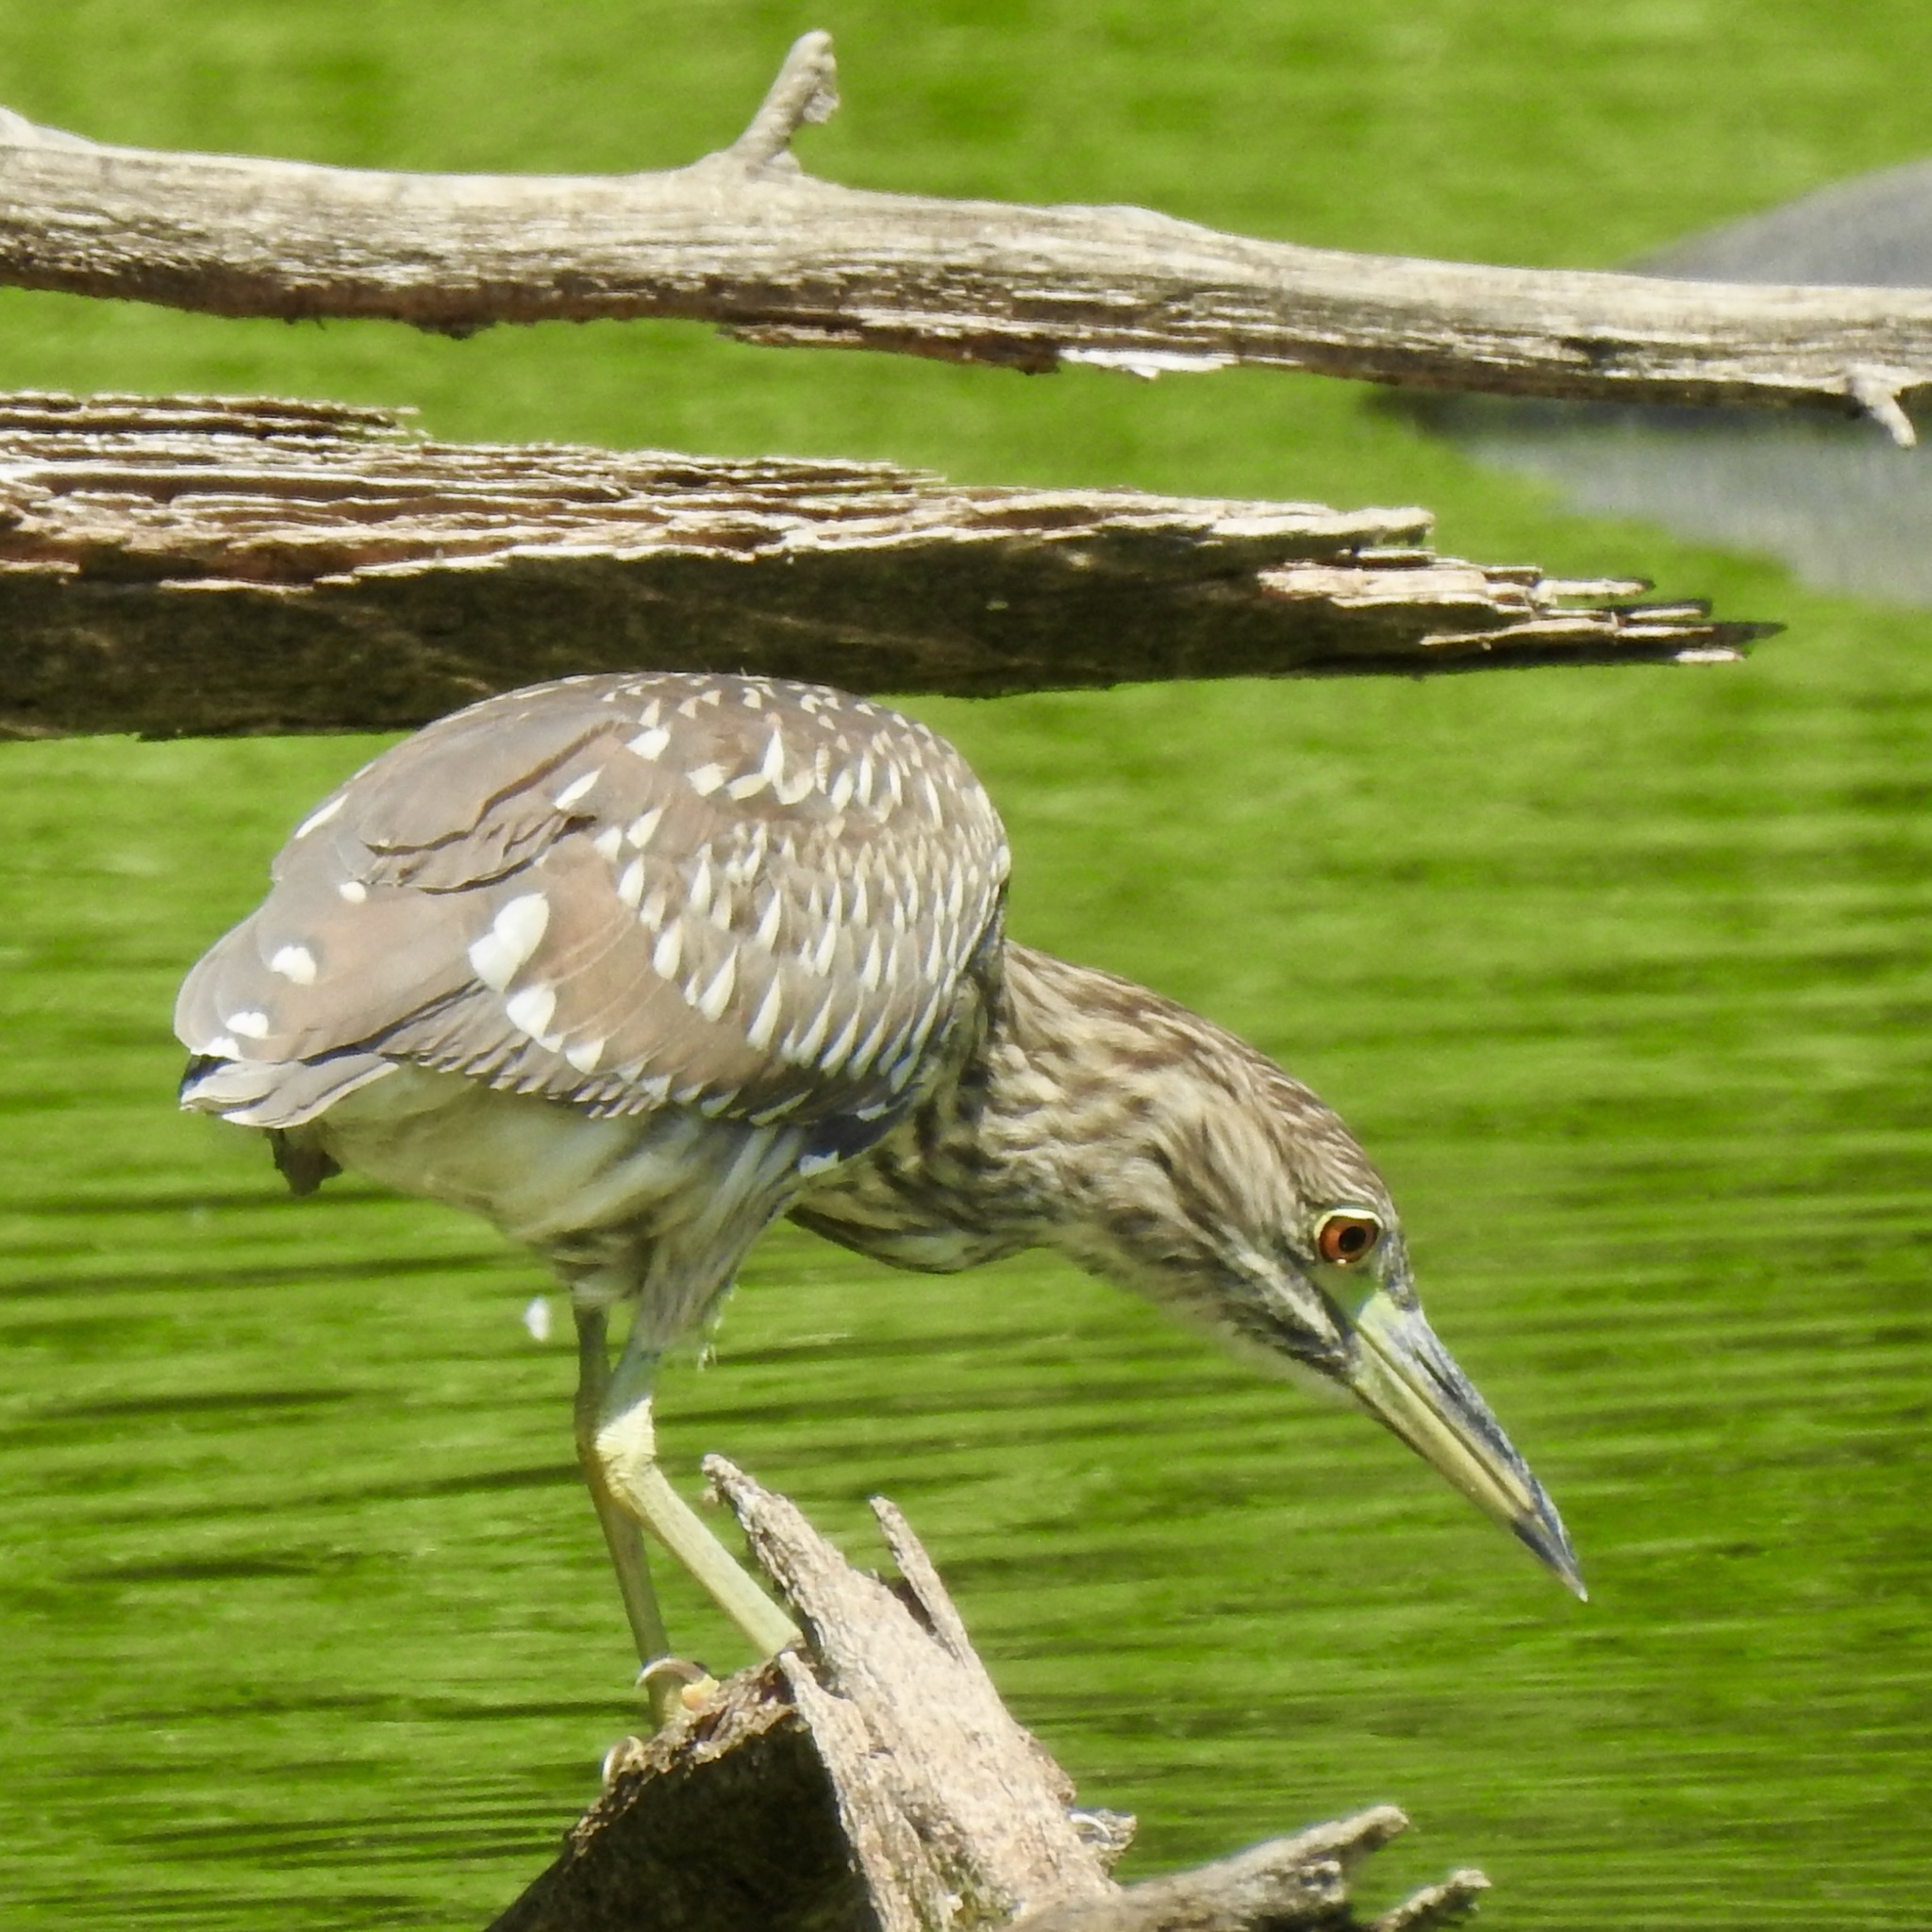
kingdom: Animalia
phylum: Chordata
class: Aves
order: Pelecaniformes
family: Ardeidae
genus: Nycticorax
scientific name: Nycticorax nycticorax
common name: Black-crowned night heron
